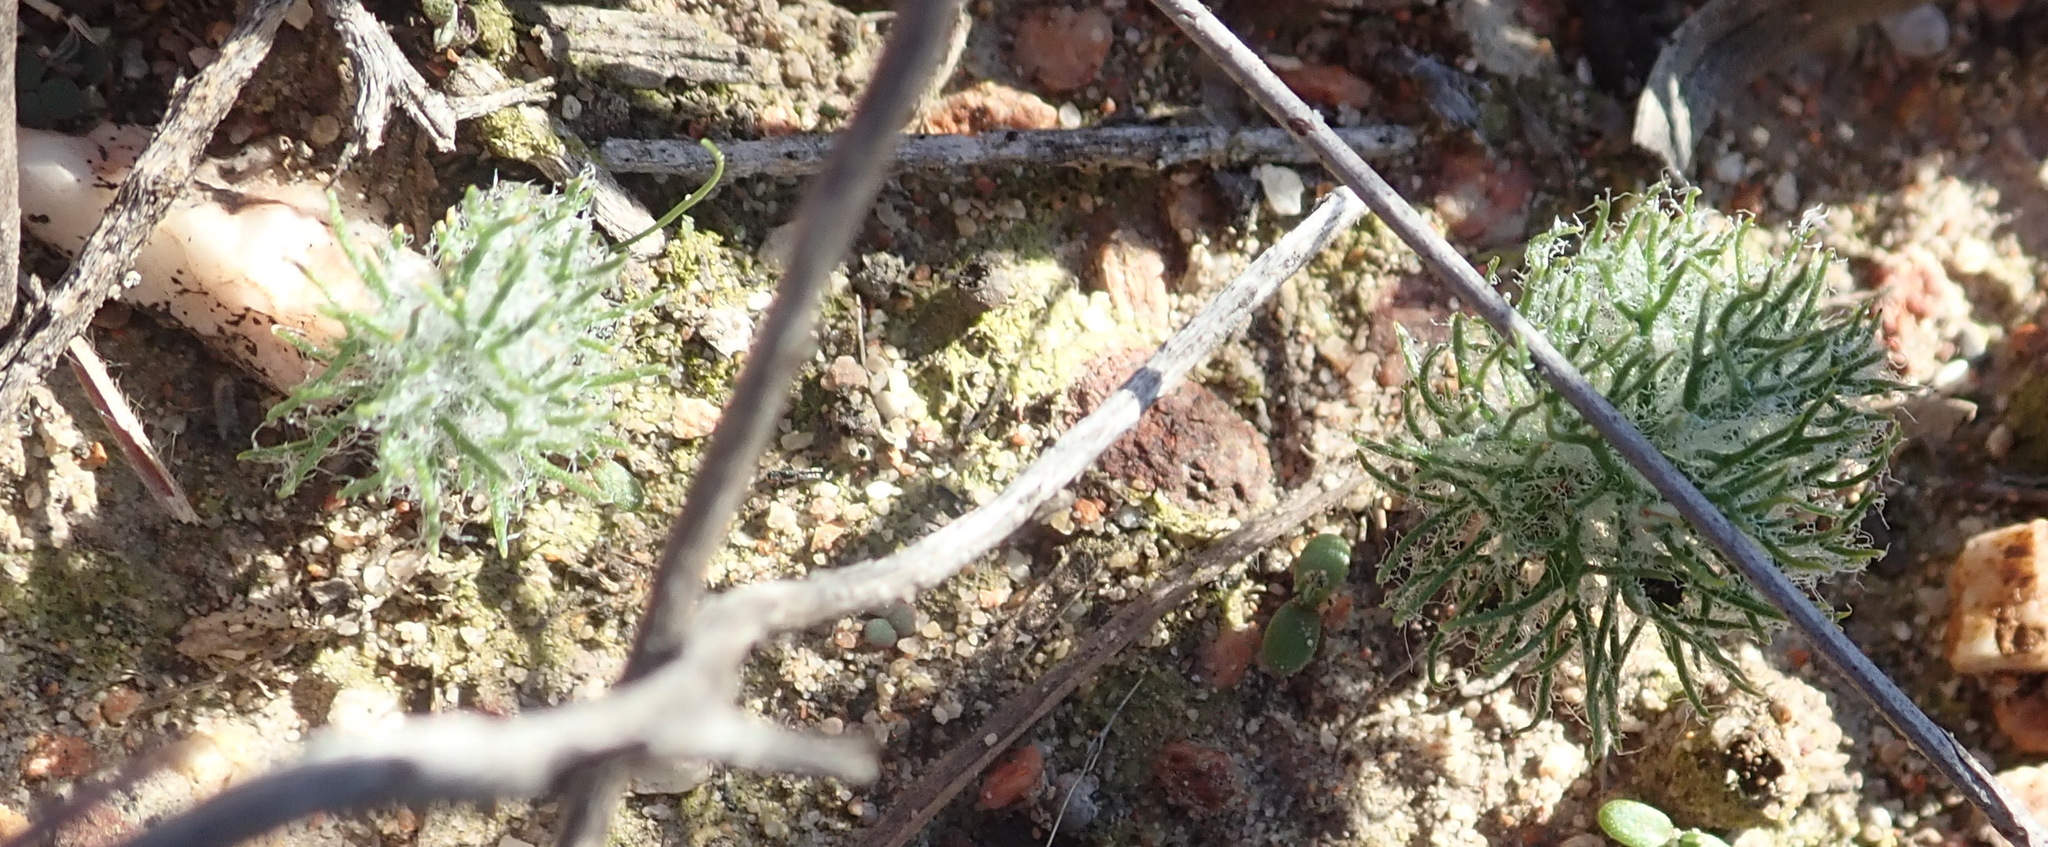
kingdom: Plantae
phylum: Tracheophyta
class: Liliopsida
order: Asparagales
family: Asparagaceae
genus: Eriospermum
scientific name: Eriospermum paradoxum
